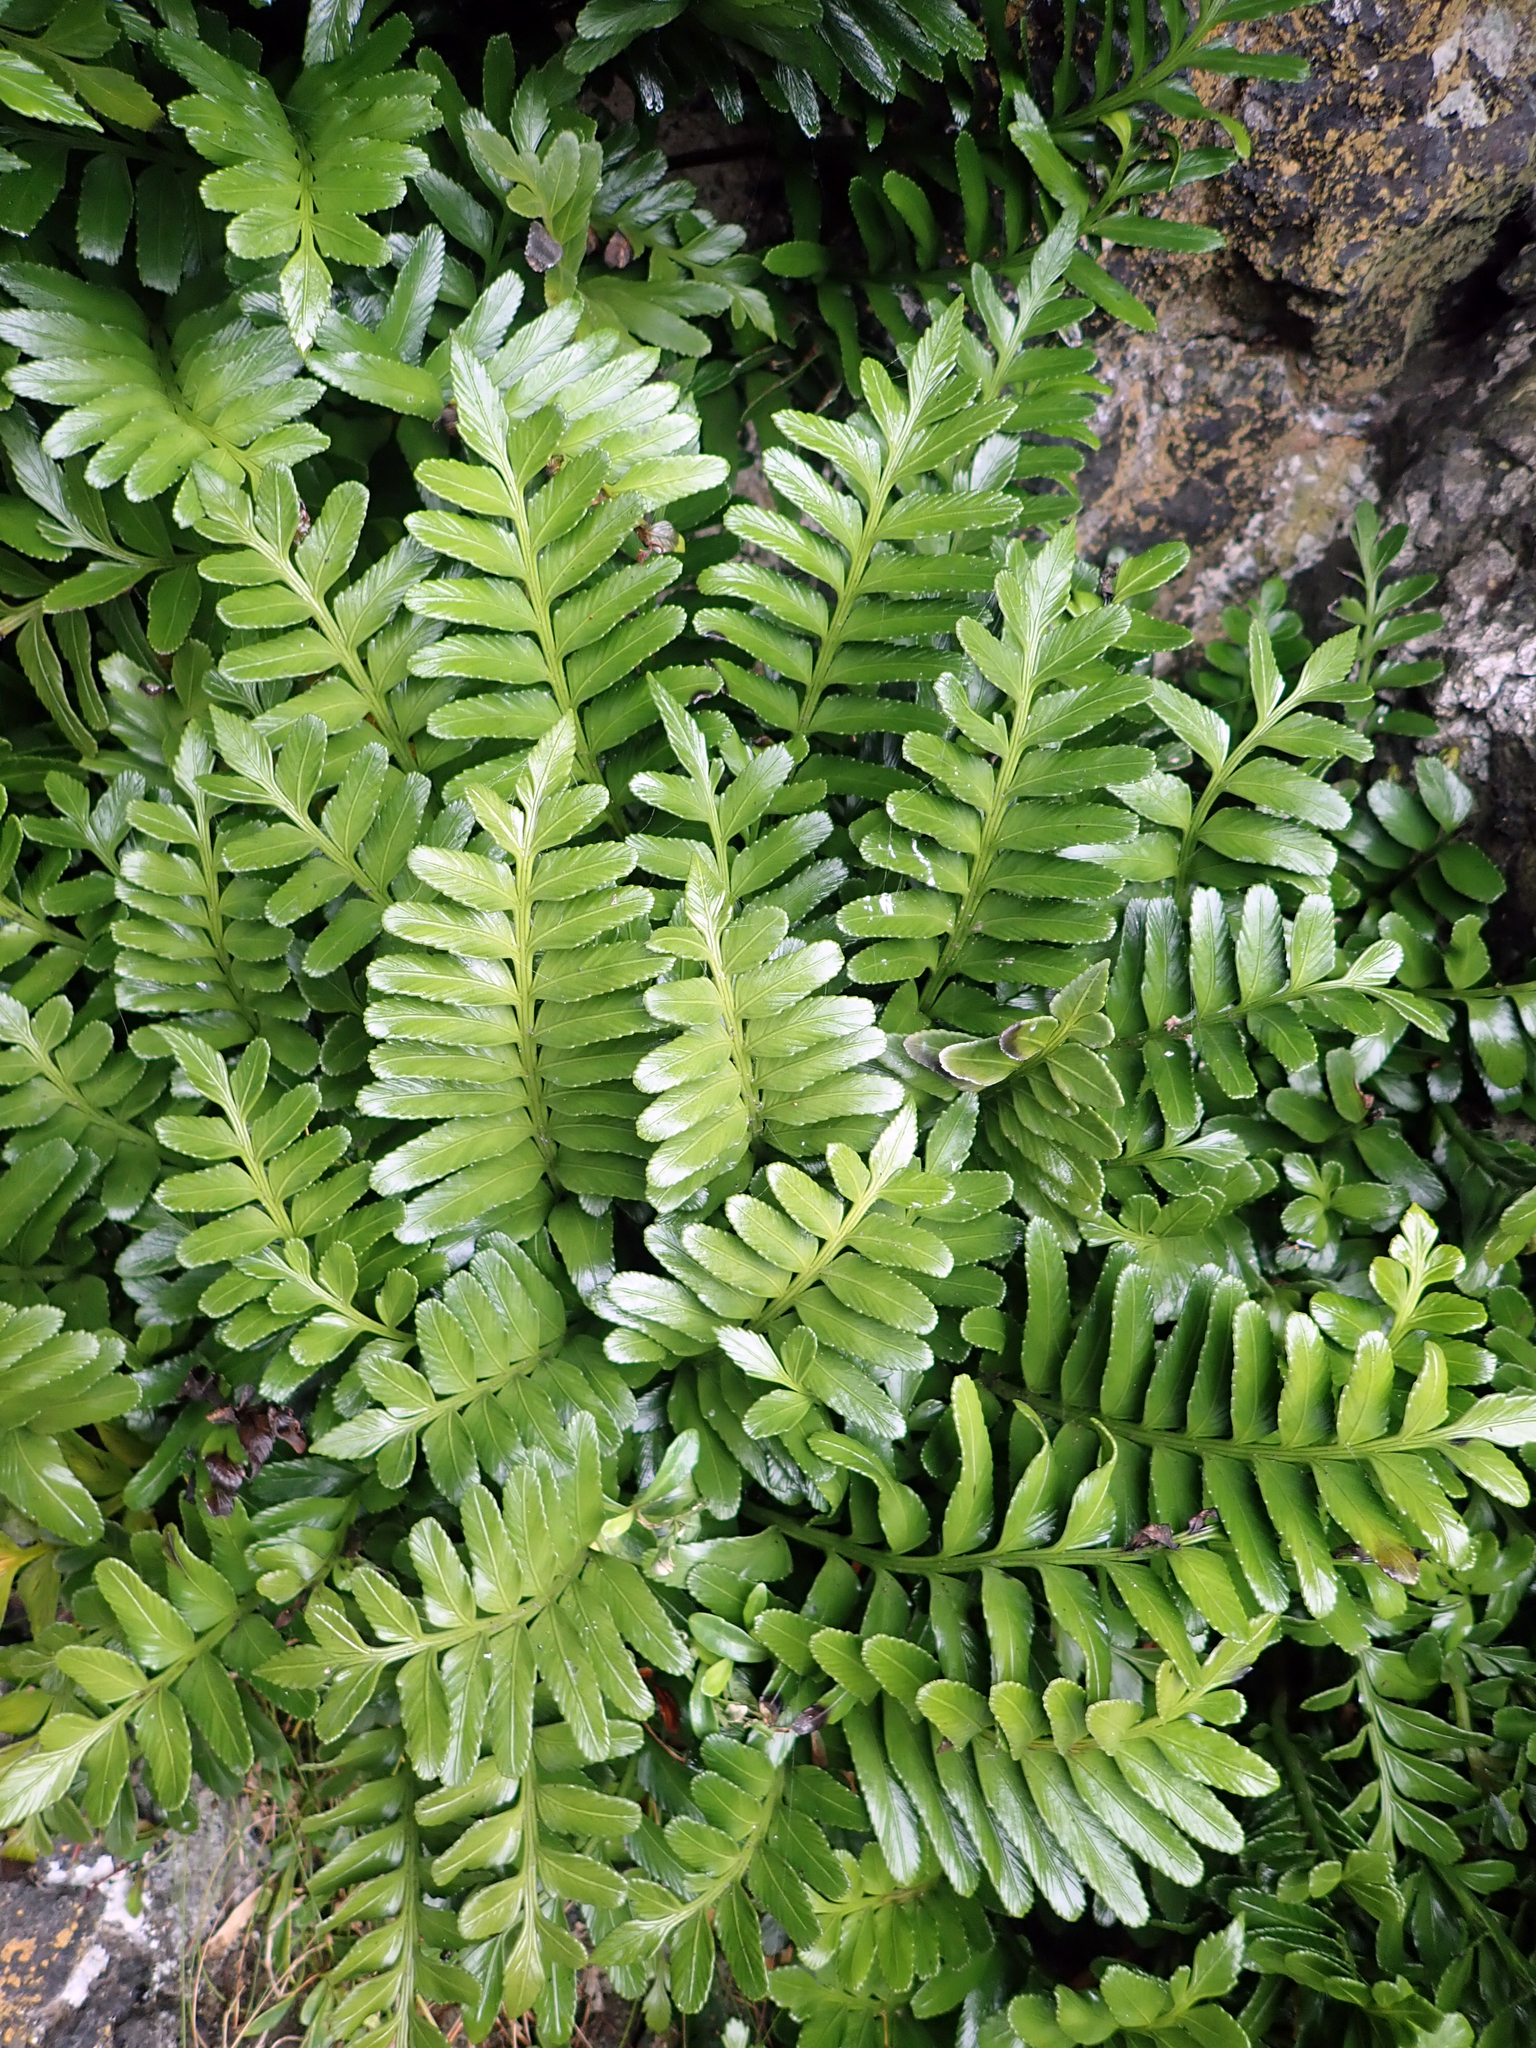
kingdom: Plantae
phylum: Tracheophyta
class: Polypodiopsida
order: Polypodiales
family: Aspleniaceae
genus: Asplenium
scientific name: Asplenium obtusatum
